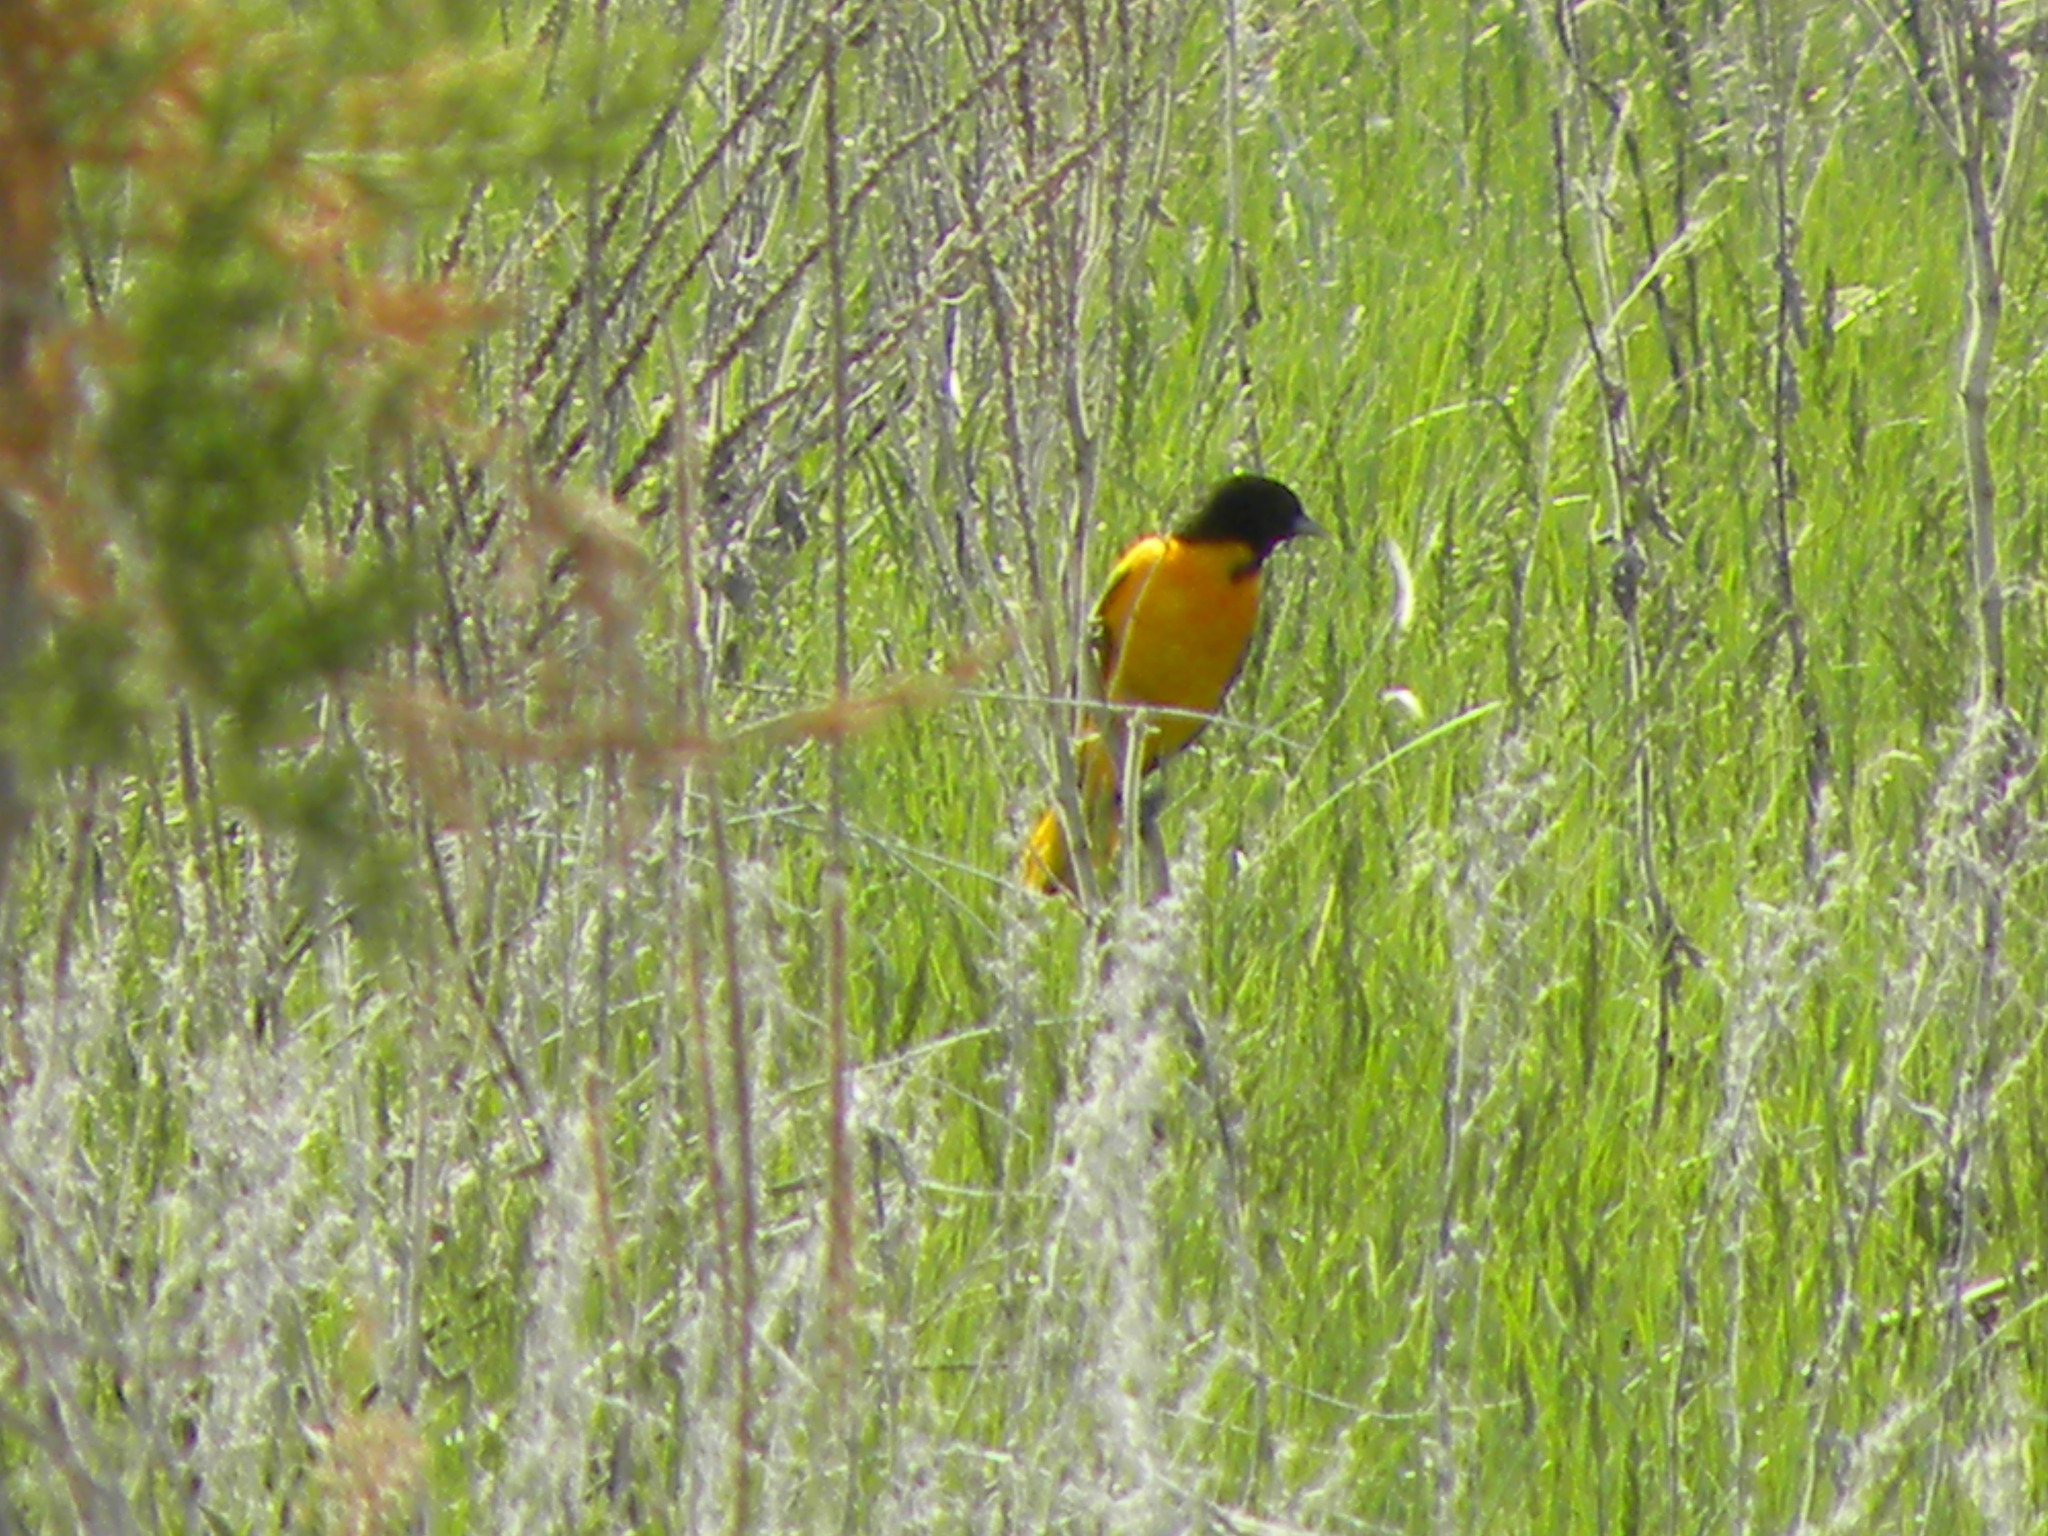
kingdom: Animalia
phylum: Chordata
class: Aves
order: Passeriformes
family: Icteridae
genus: Icterus
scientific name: Icterus galbula
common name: Baltimore oriole
